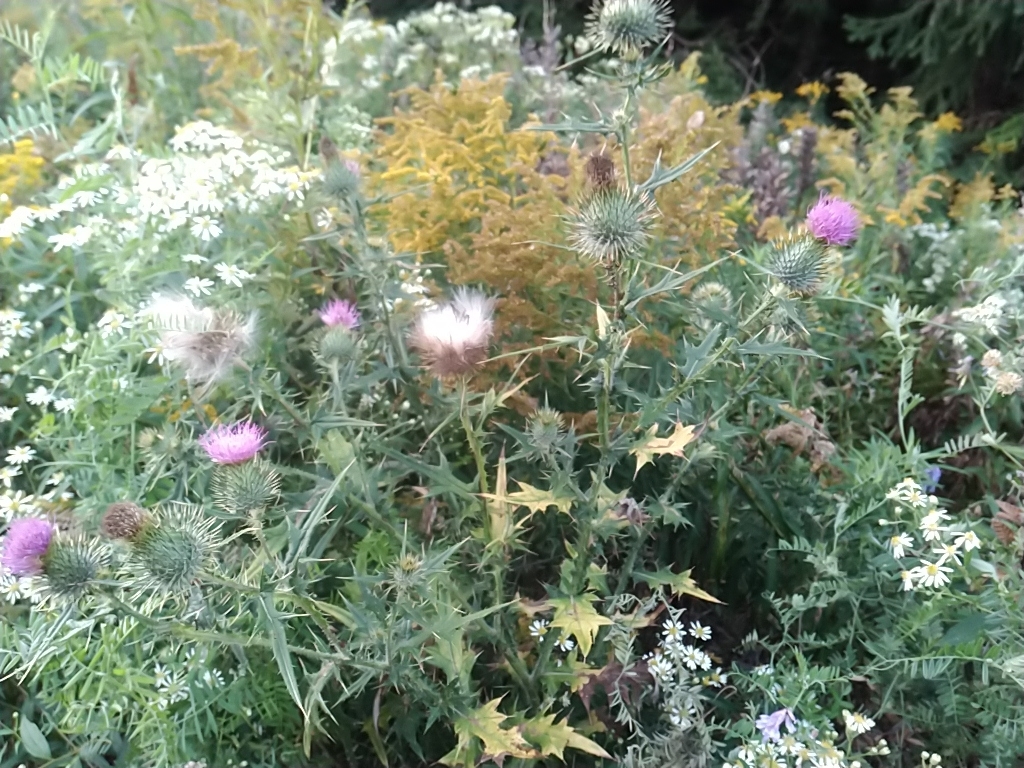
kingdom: Plantae
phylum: Tracheophyta
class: Magnoliopsida
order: Asterales
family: Asteraceae
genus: Cirsium
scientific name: Cirsium vulgare
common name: Bull thistle
